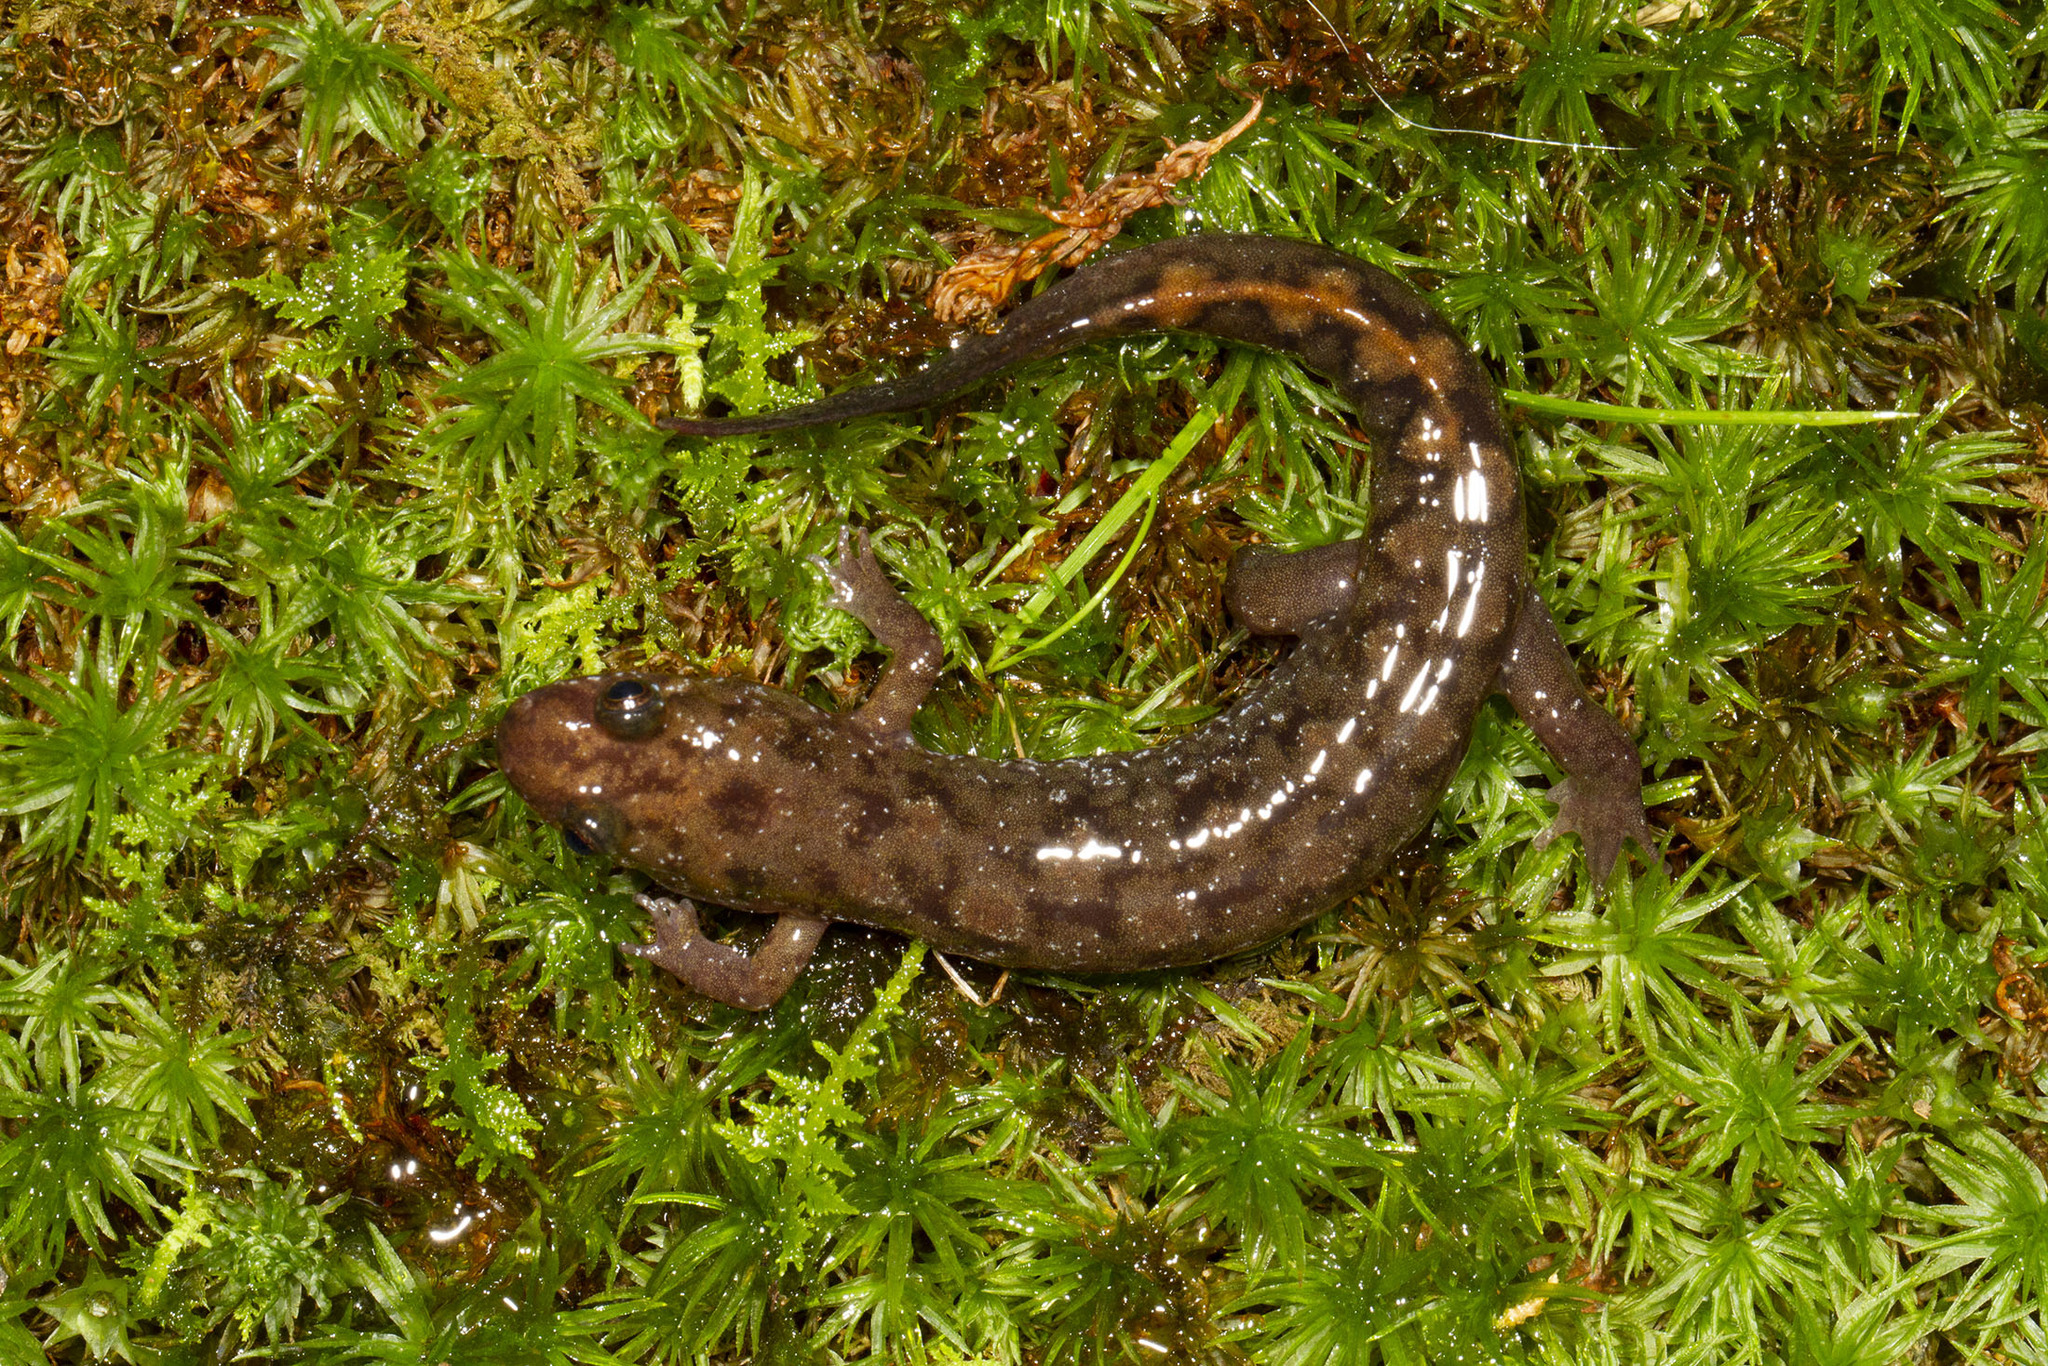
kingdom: Animalia
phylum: Chordata
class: Amphibia
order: Caudata
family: Plethodontidae
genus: Desmognathus
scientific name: Desmognathus monticola
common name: Seal salamander
